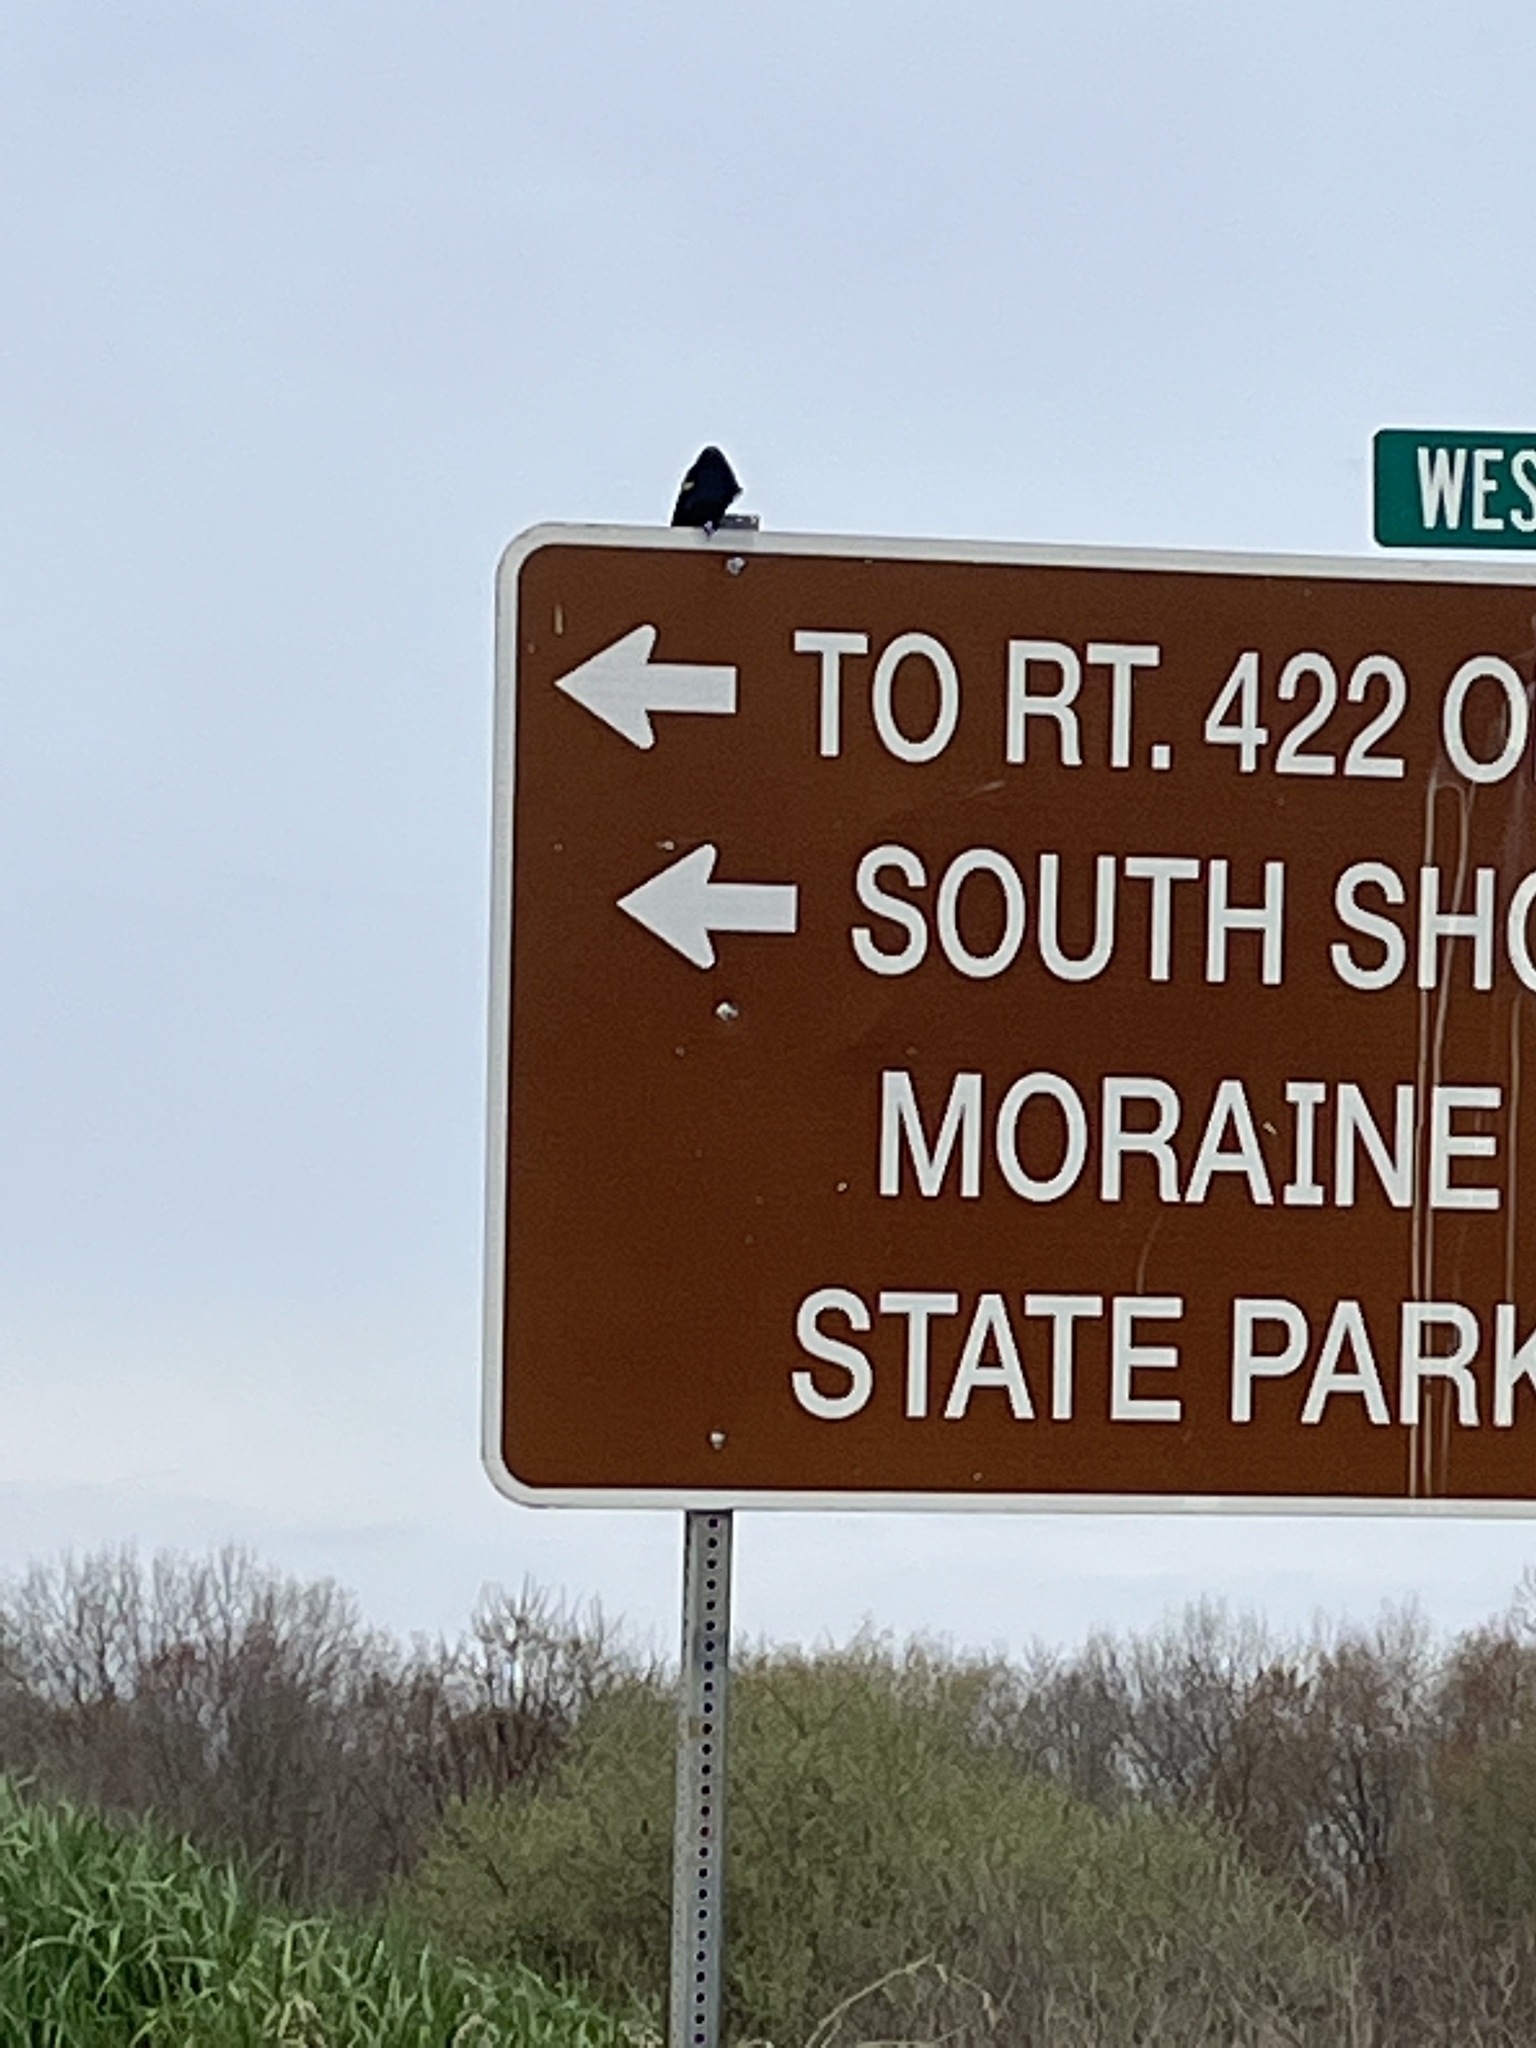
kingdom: Animalia
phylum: Chordata
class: Aves
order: Passeriformes
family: Icteridae
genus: Agelaius
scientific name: Agelaius phoeniceus
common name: Red-winged blackbird
